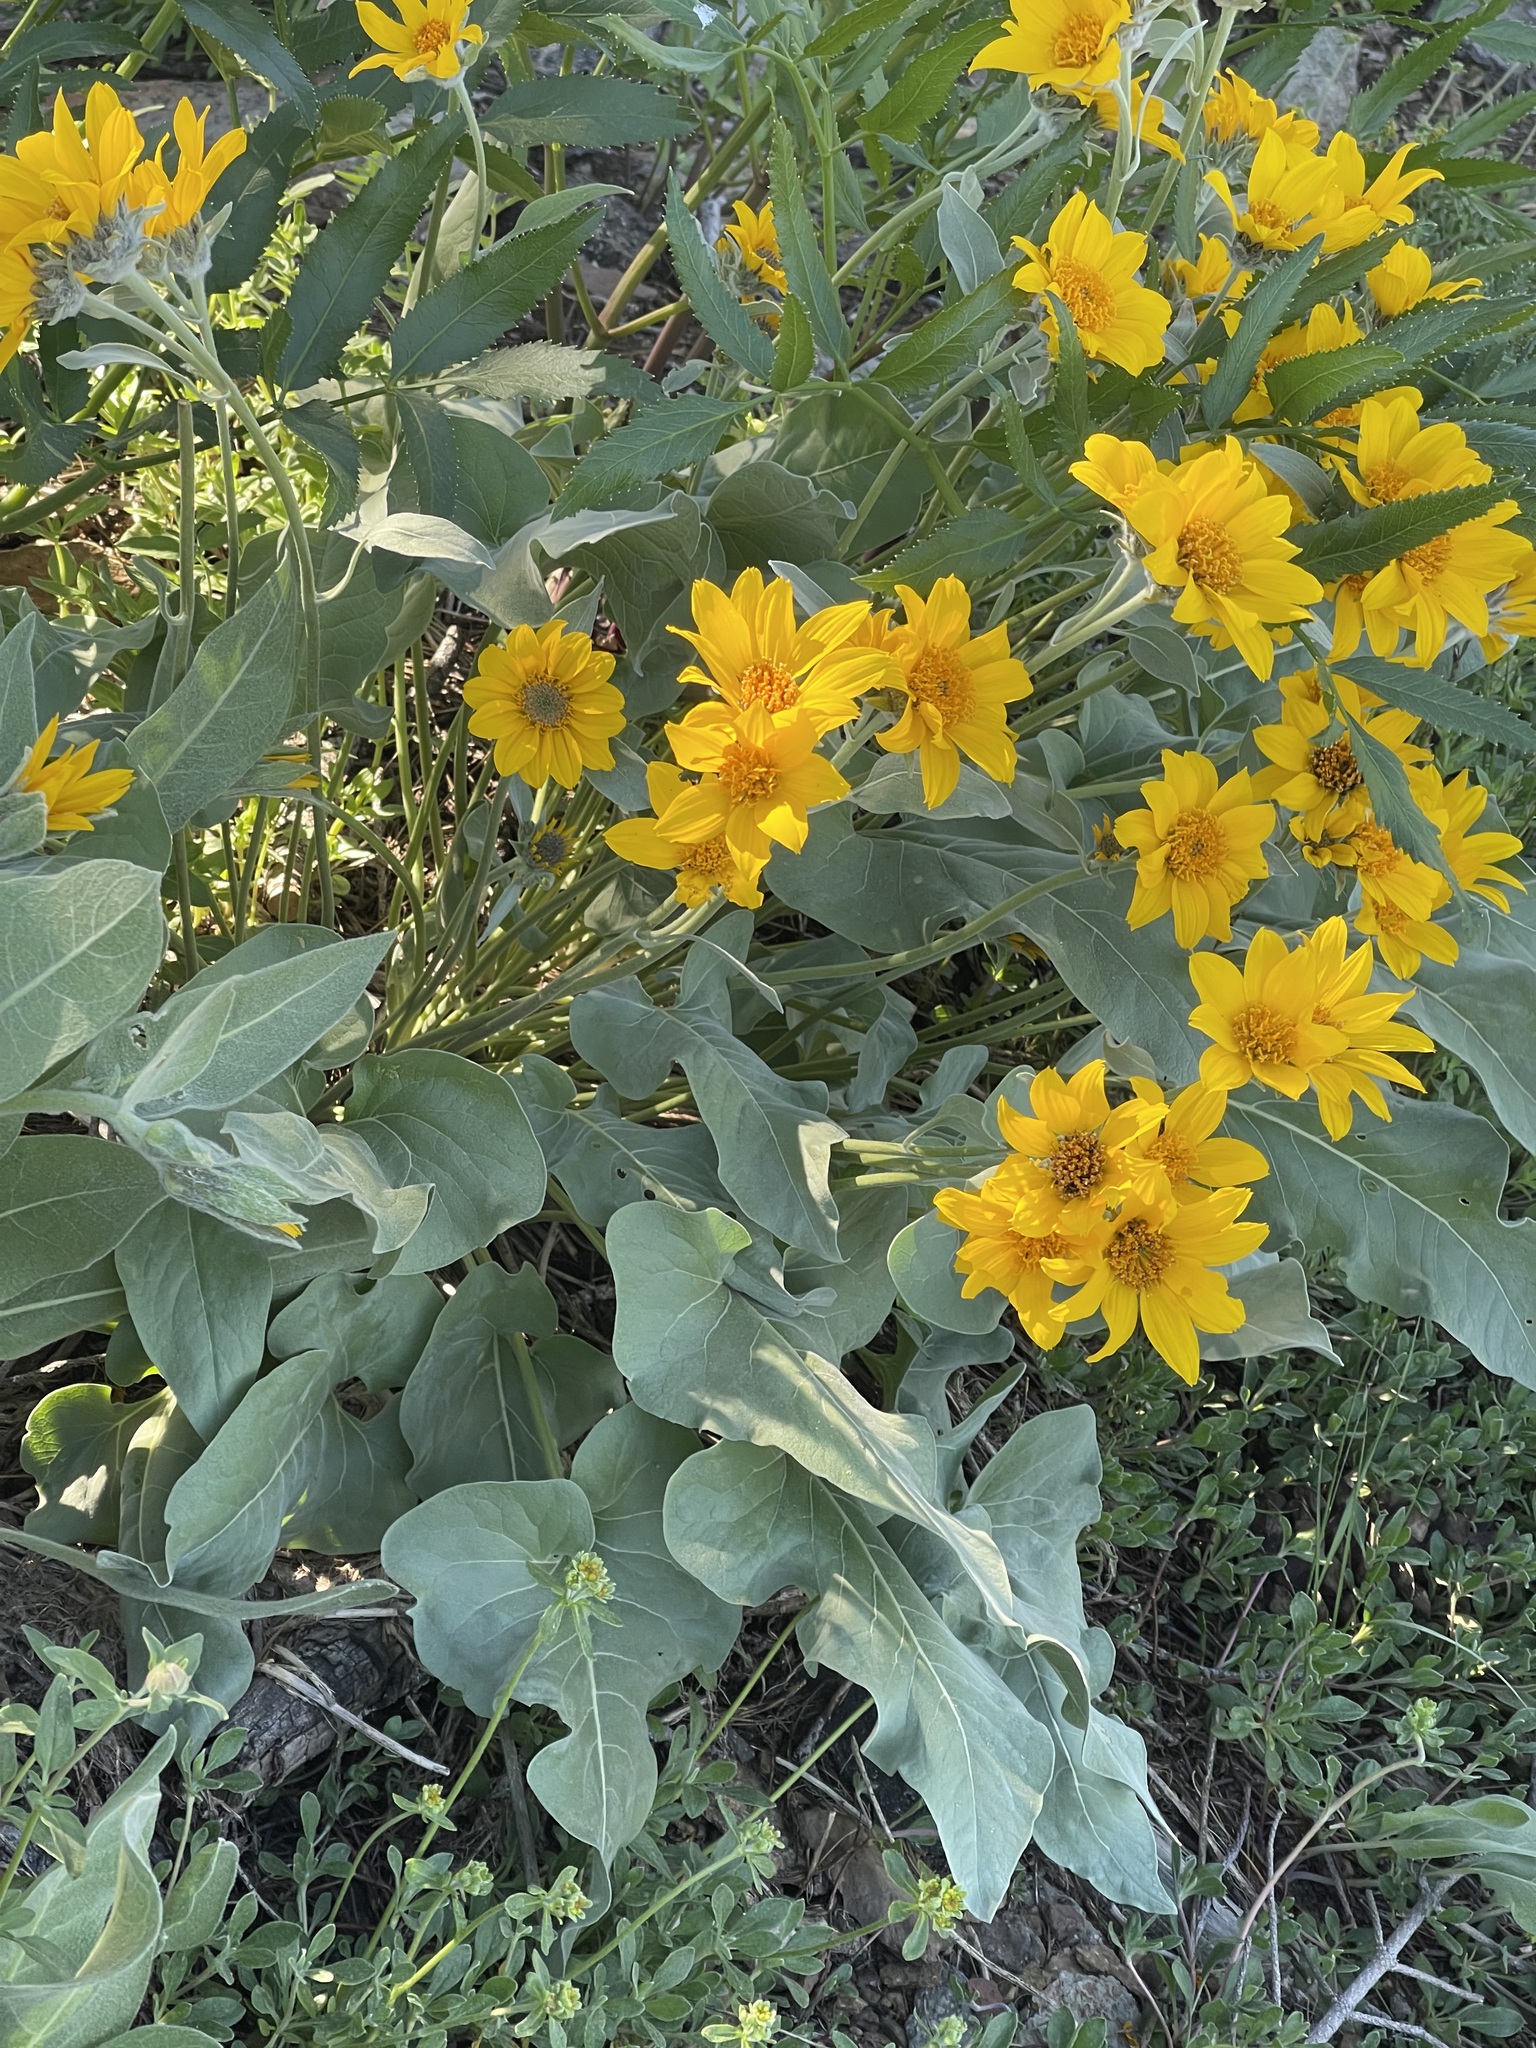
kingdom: Plantae
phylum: Tracheophyta
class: Magnoliopsida
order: Asterales
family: Asteraceae
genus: Wyethia
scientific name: Wyethia sagittata
